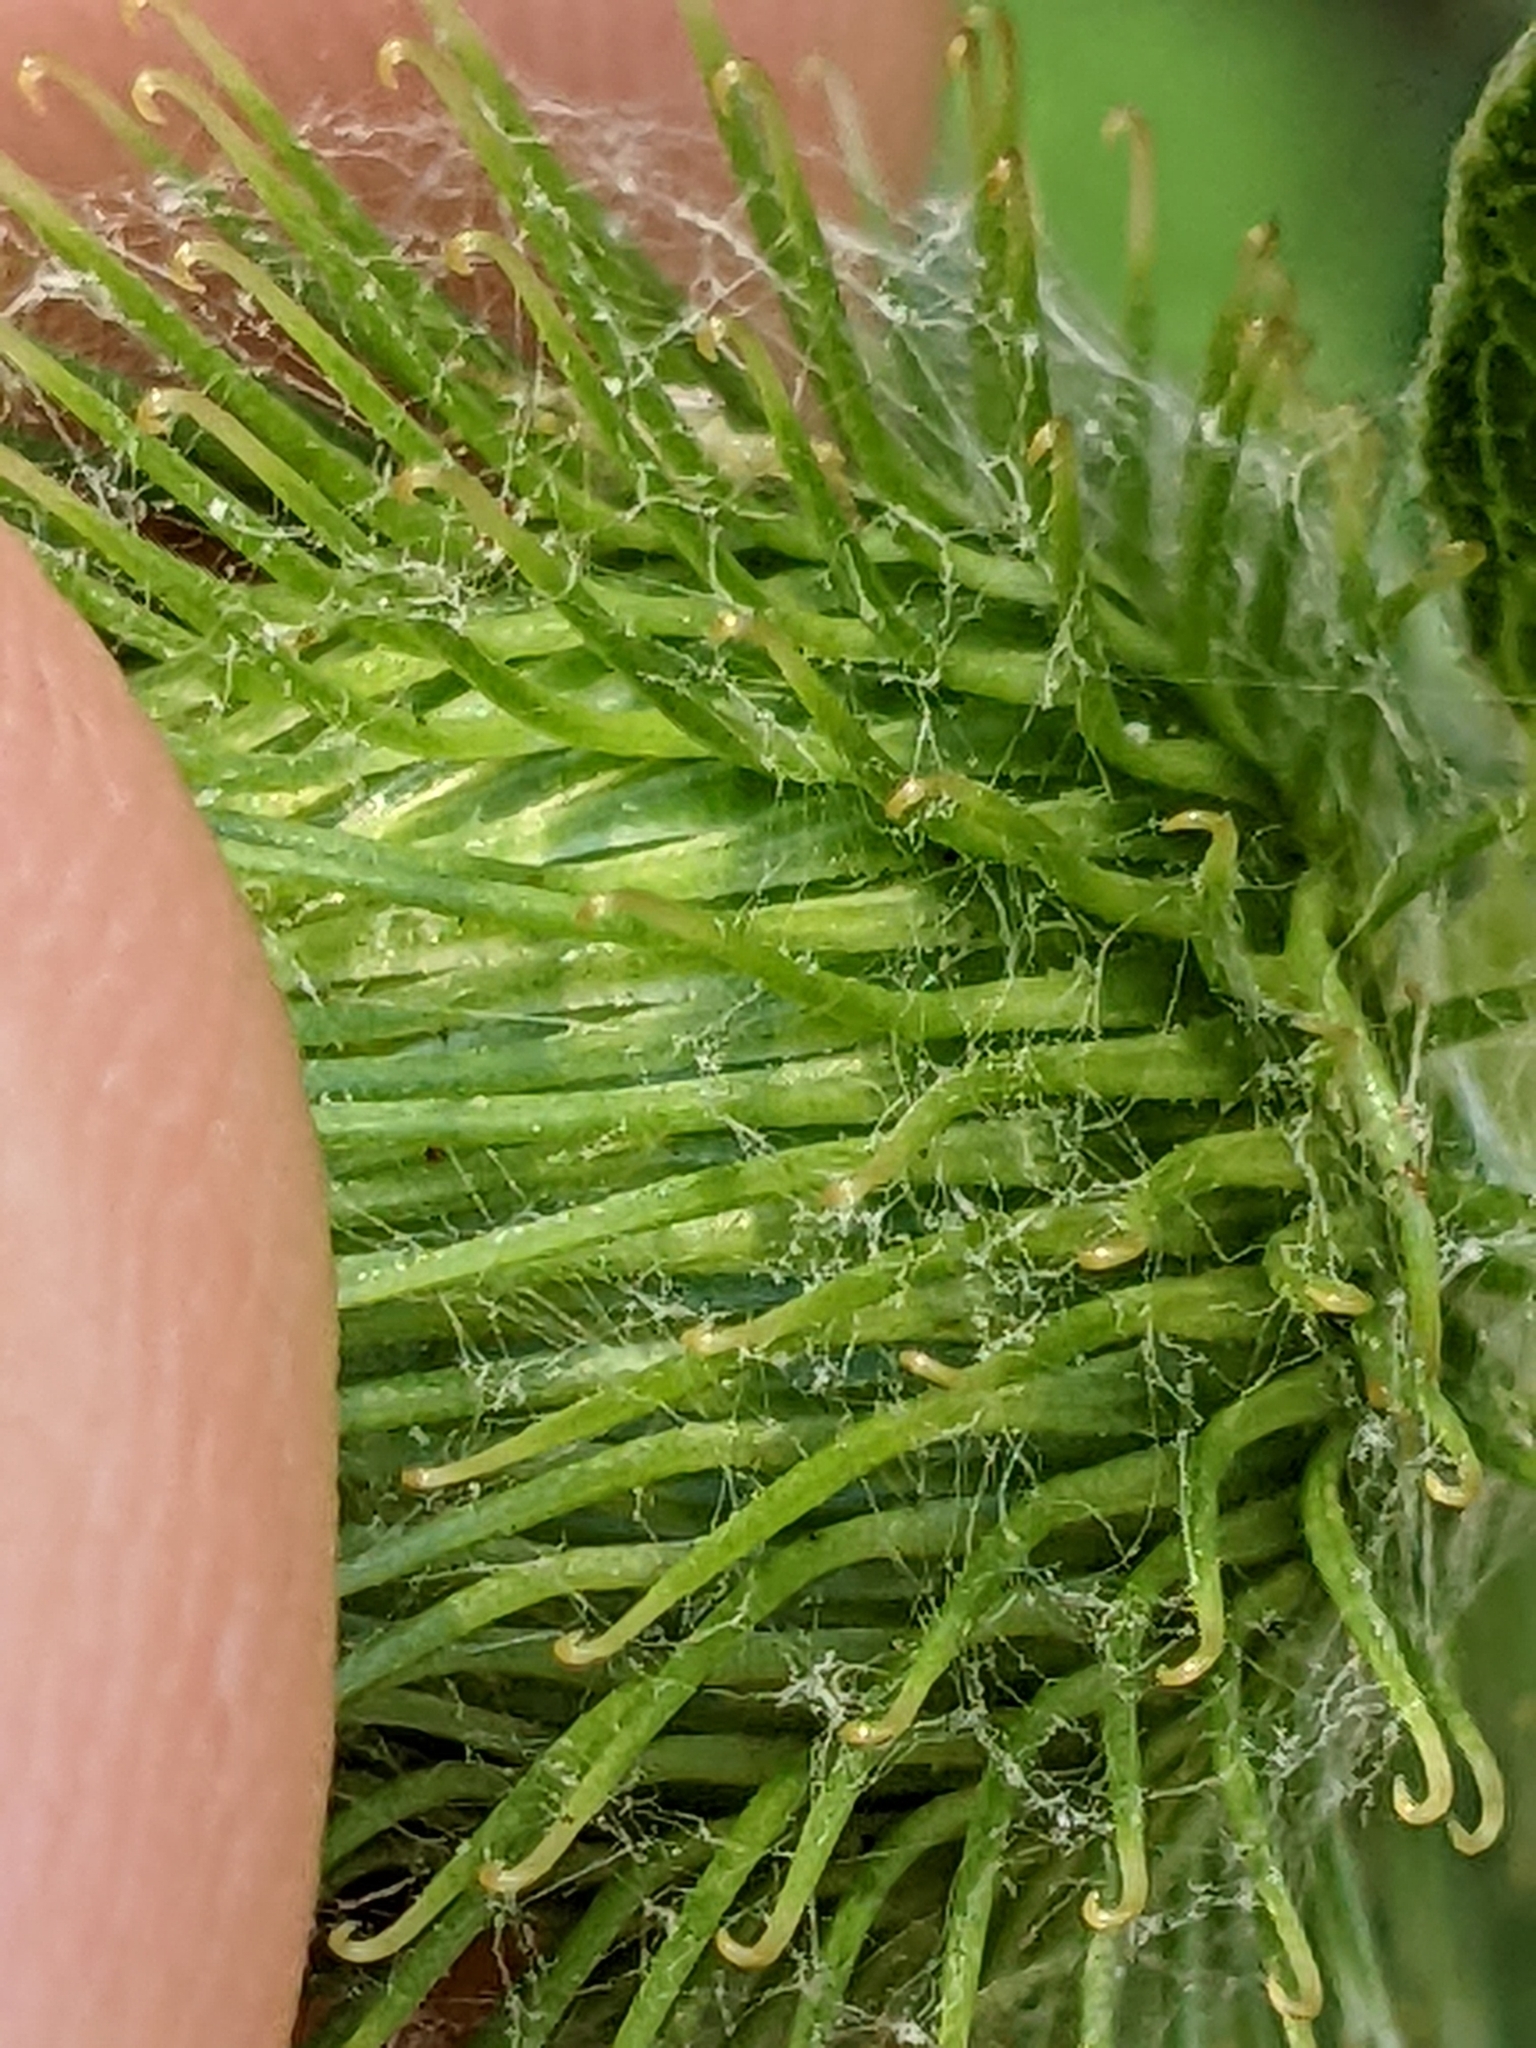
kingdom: Plantae
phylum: Tracheophyta
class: Magnoliopsida
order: Asterales
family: Asteraceae
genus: Arctium
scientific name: Arctium minus
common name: Lesser burdock
